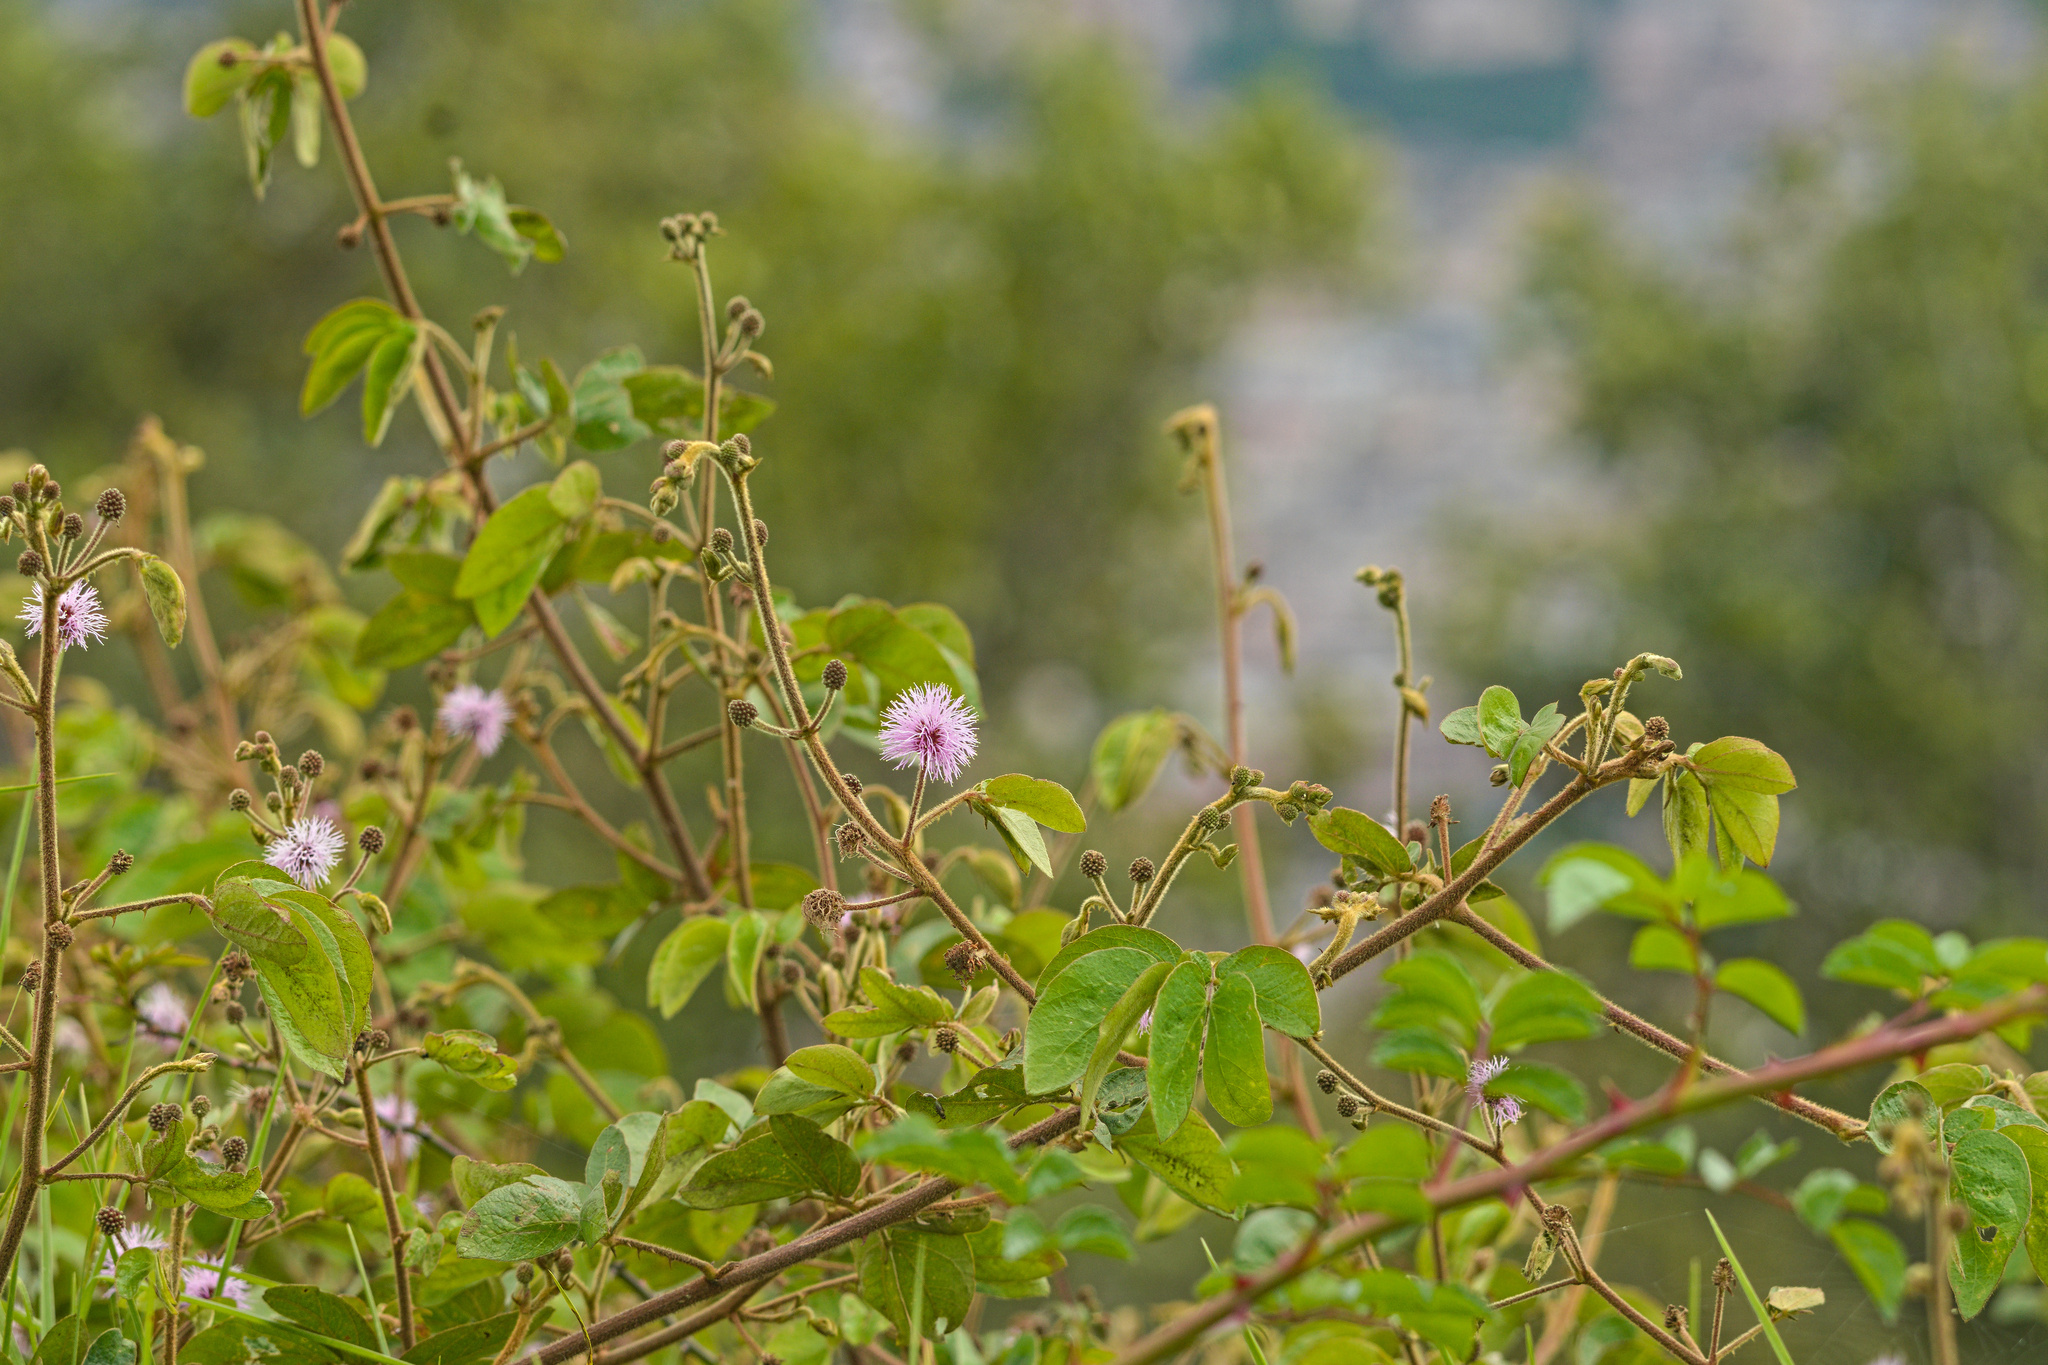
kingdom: Plantae
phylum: Tracheophyta
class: Magnoliopsida
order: Fabales
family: Fabaceae
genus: Mimosa
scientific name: Mimosa albida
